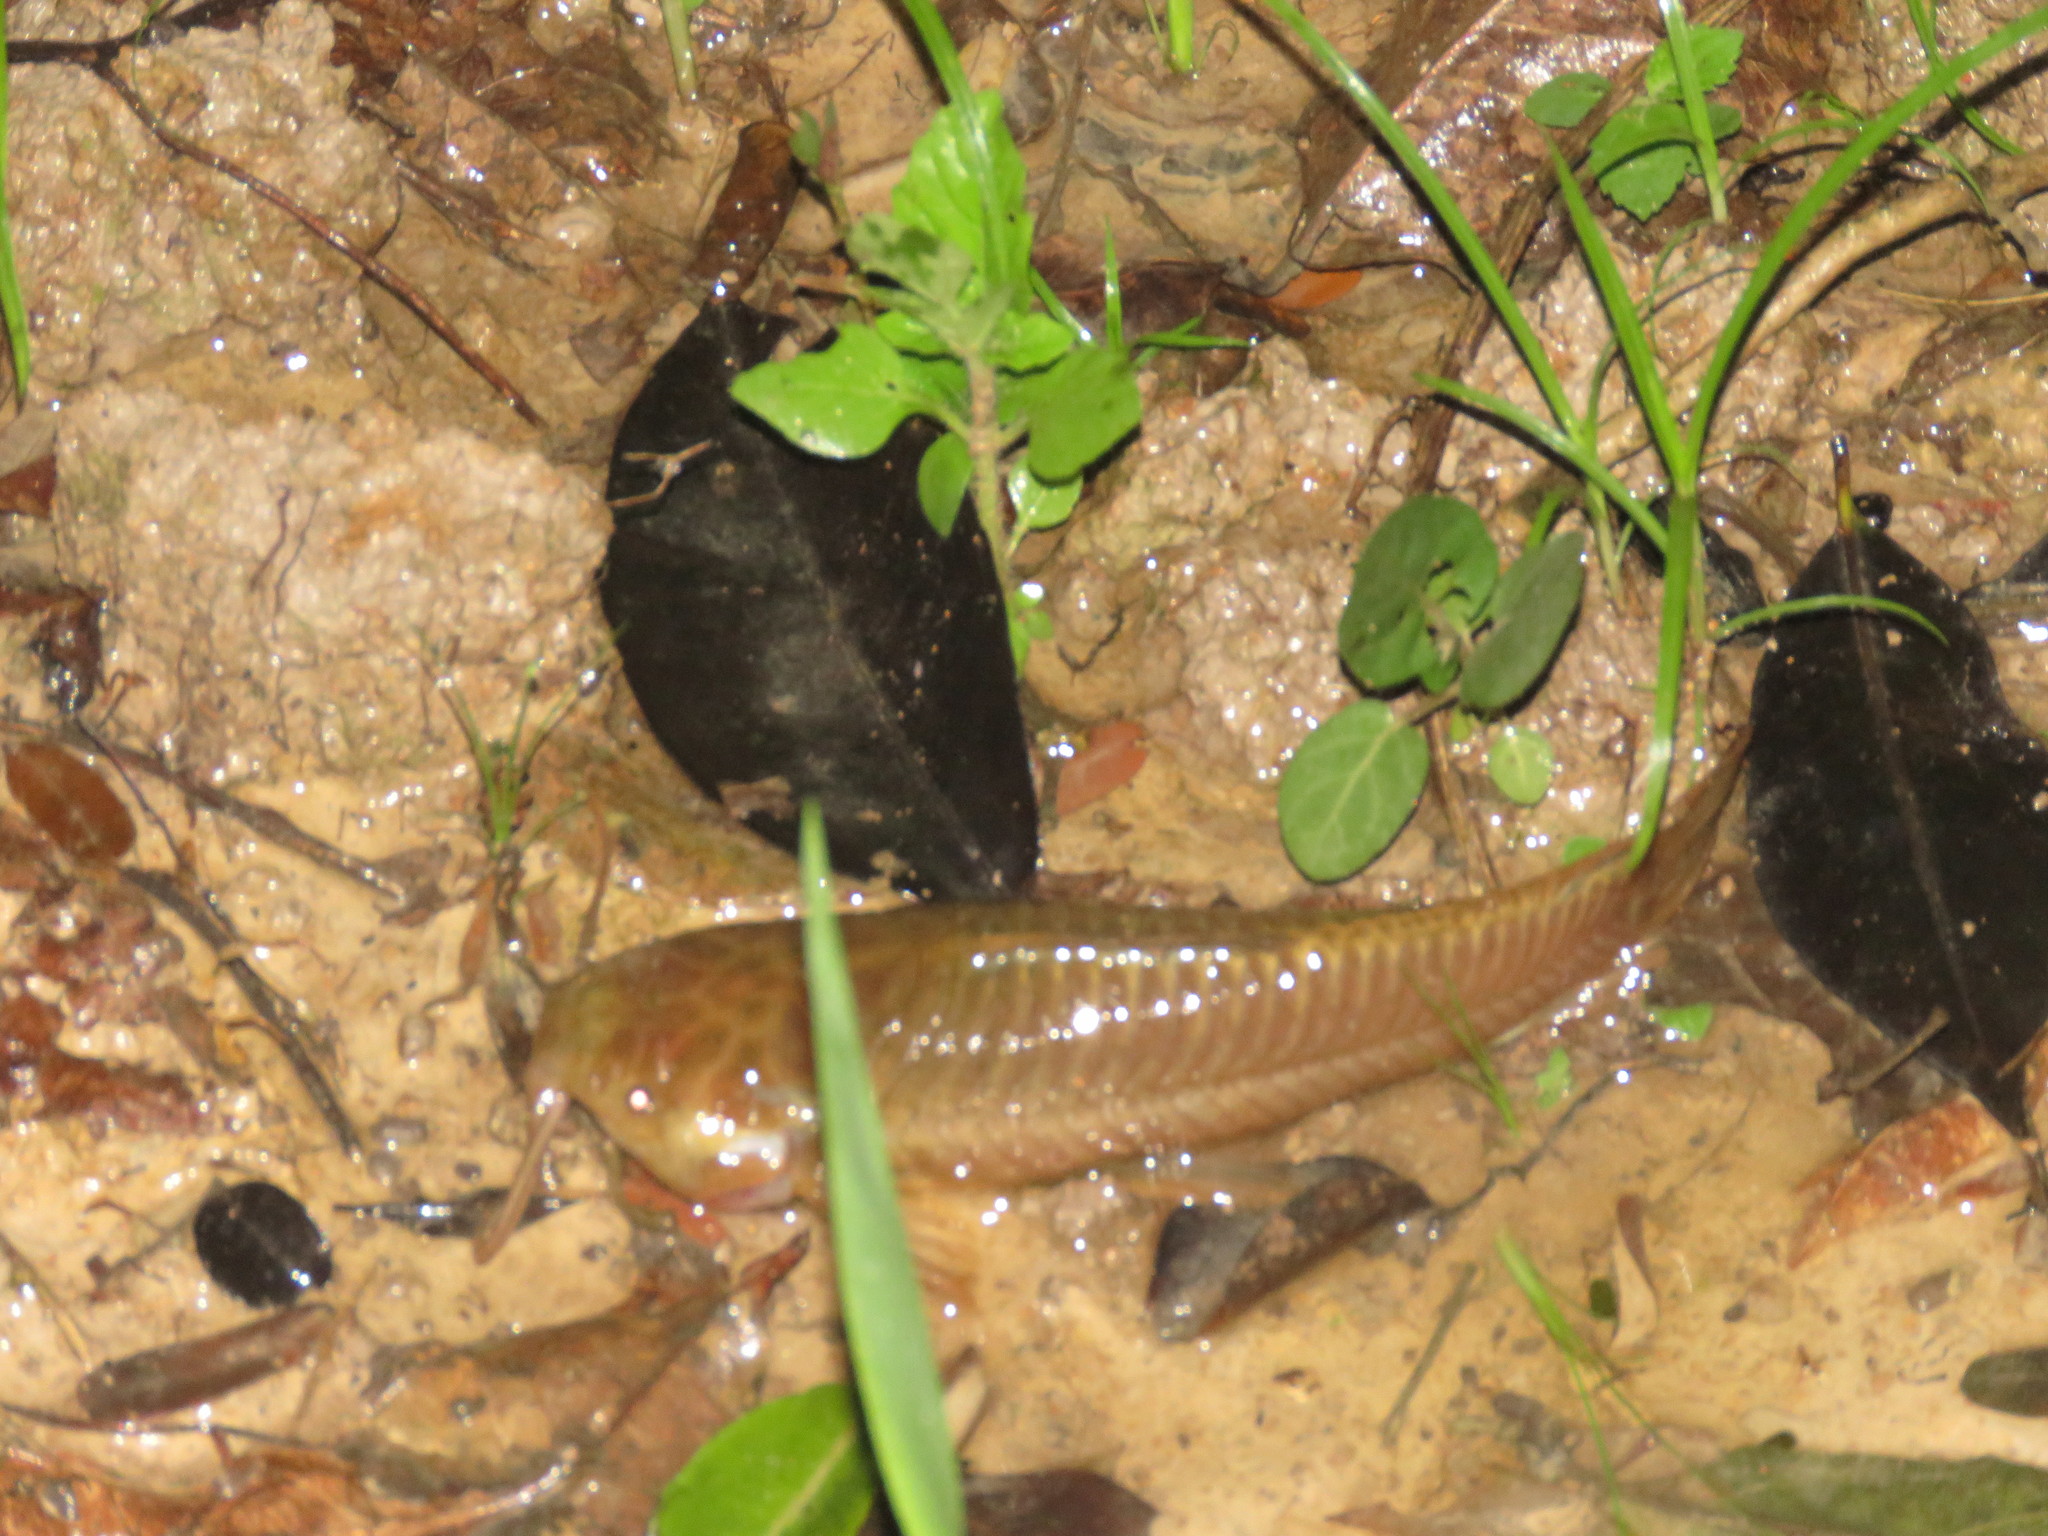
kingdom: Animalia
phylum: Chordata
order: Siluriformes
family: Callichthyidae
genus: Callichthys
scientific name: Callichthys callichthys
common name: Cascarudo
